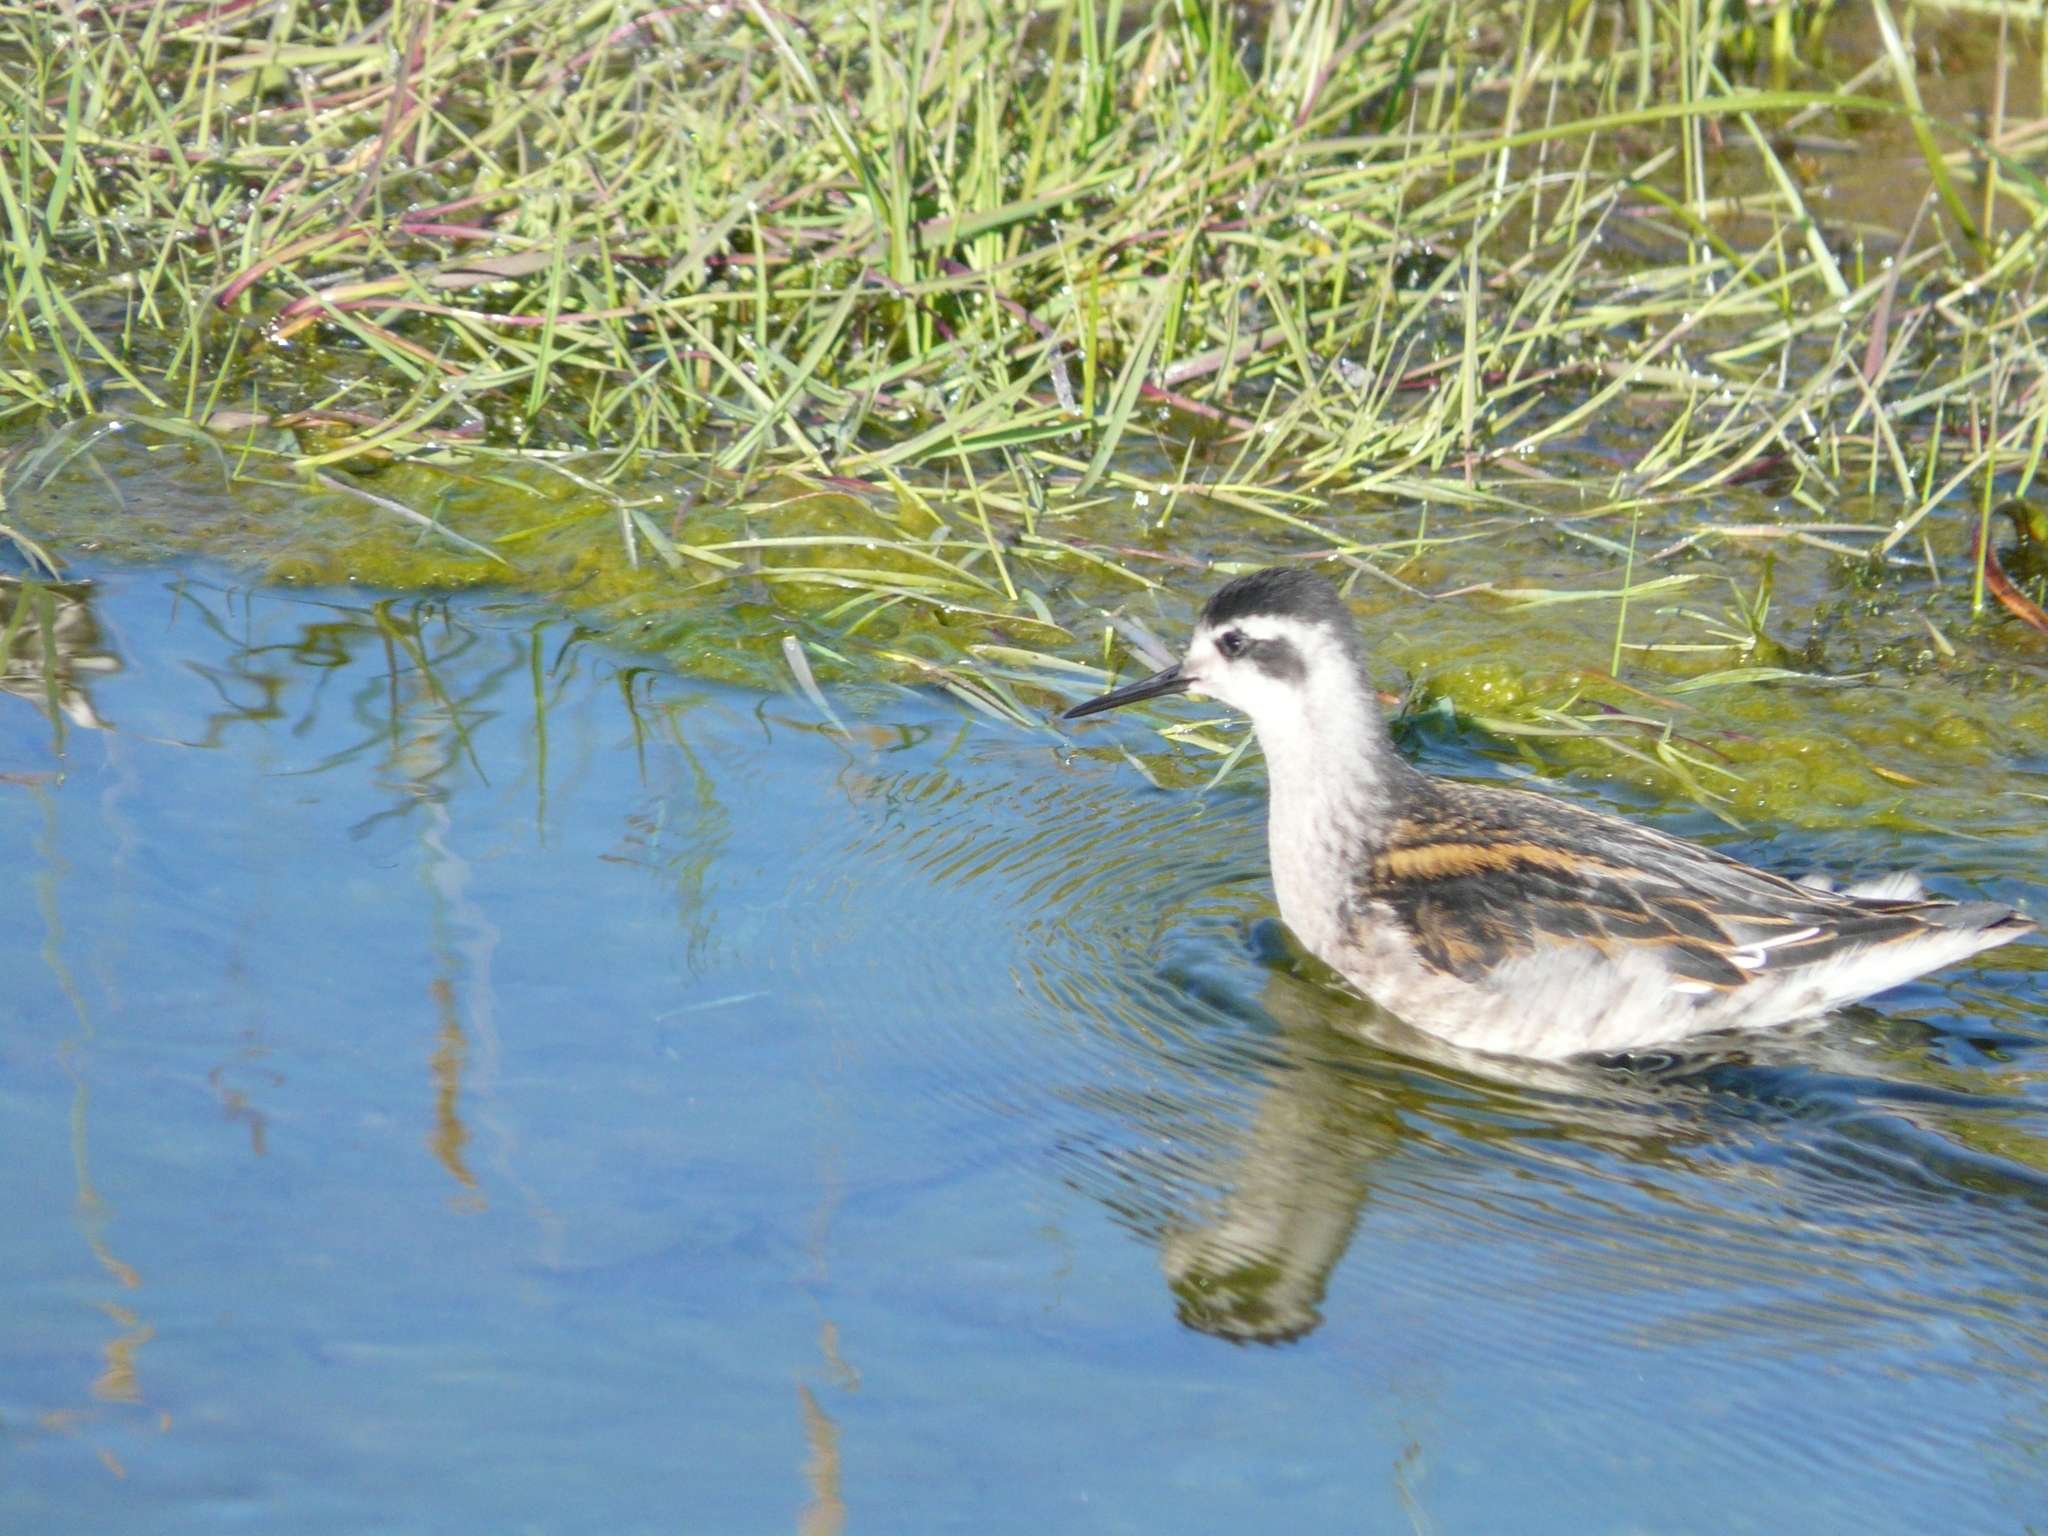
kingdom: Animalia
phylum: Chordata
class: Aves
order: Charadriiformes
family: Scolopacidae
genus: Phalaropus
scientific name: Phalaropus lobatus
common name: Red-necked phalarope
